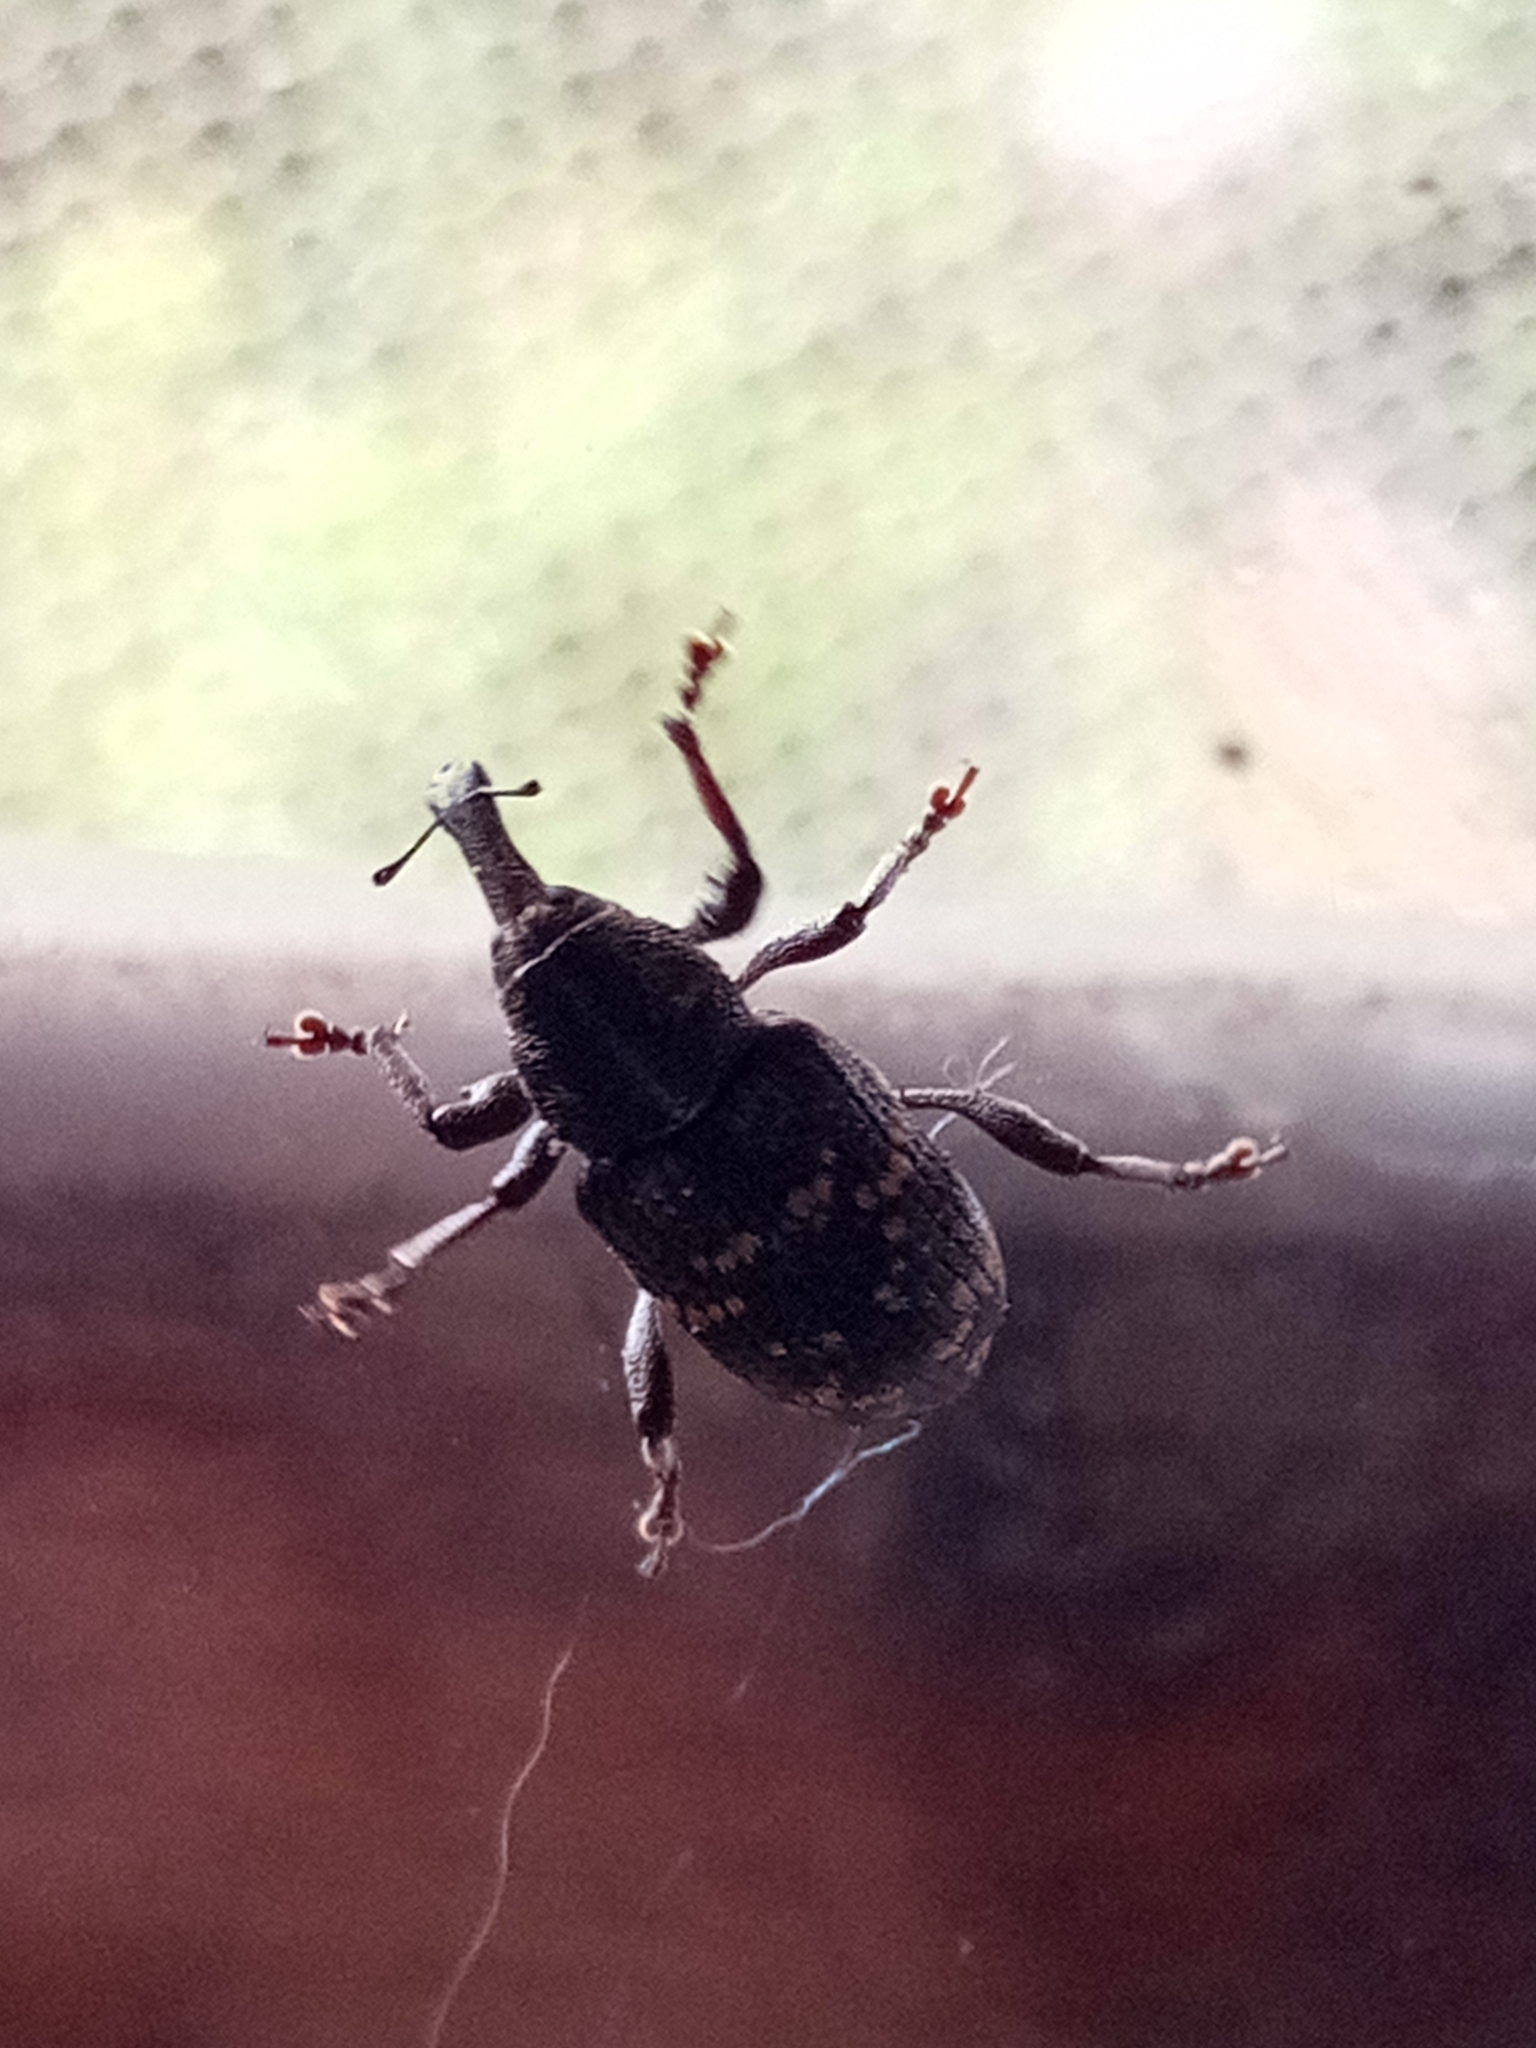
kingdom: Animalia
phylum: Arthropoda
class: Insecta
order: Coleoptera
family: Curculionidae
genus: Hylobius
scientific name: Hylobius abietis
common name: Large pine weevil
